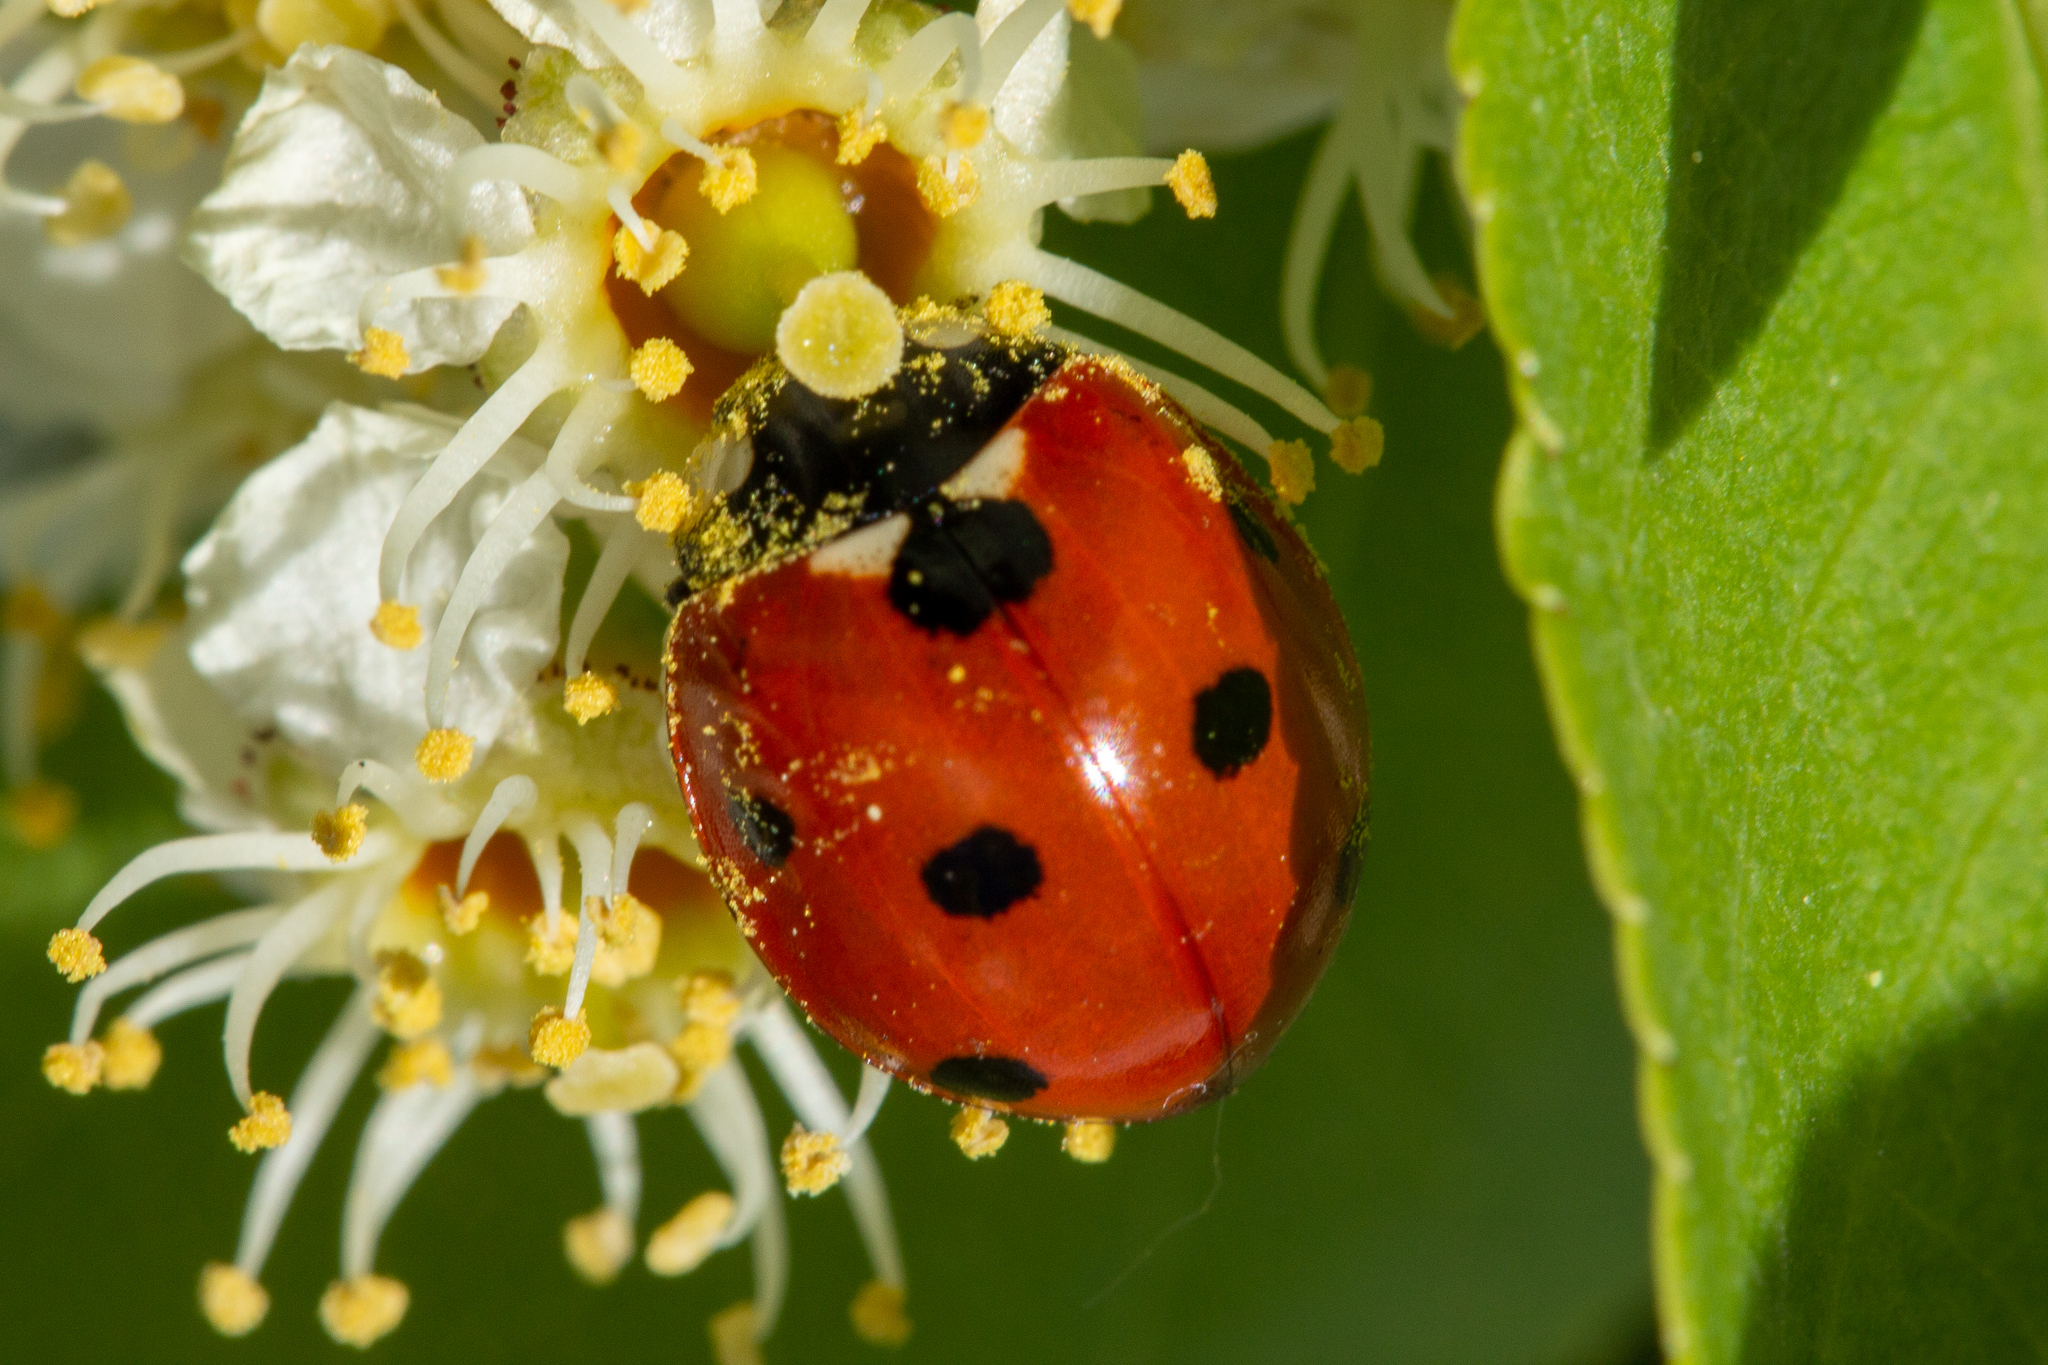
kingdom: Animalia
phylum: Arthropoda
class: Insecta
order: Coleoptera
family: Coccinellidae
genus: Coccinella
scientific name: Coccinella septempunctata
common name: Sevenspotted lady beetle
